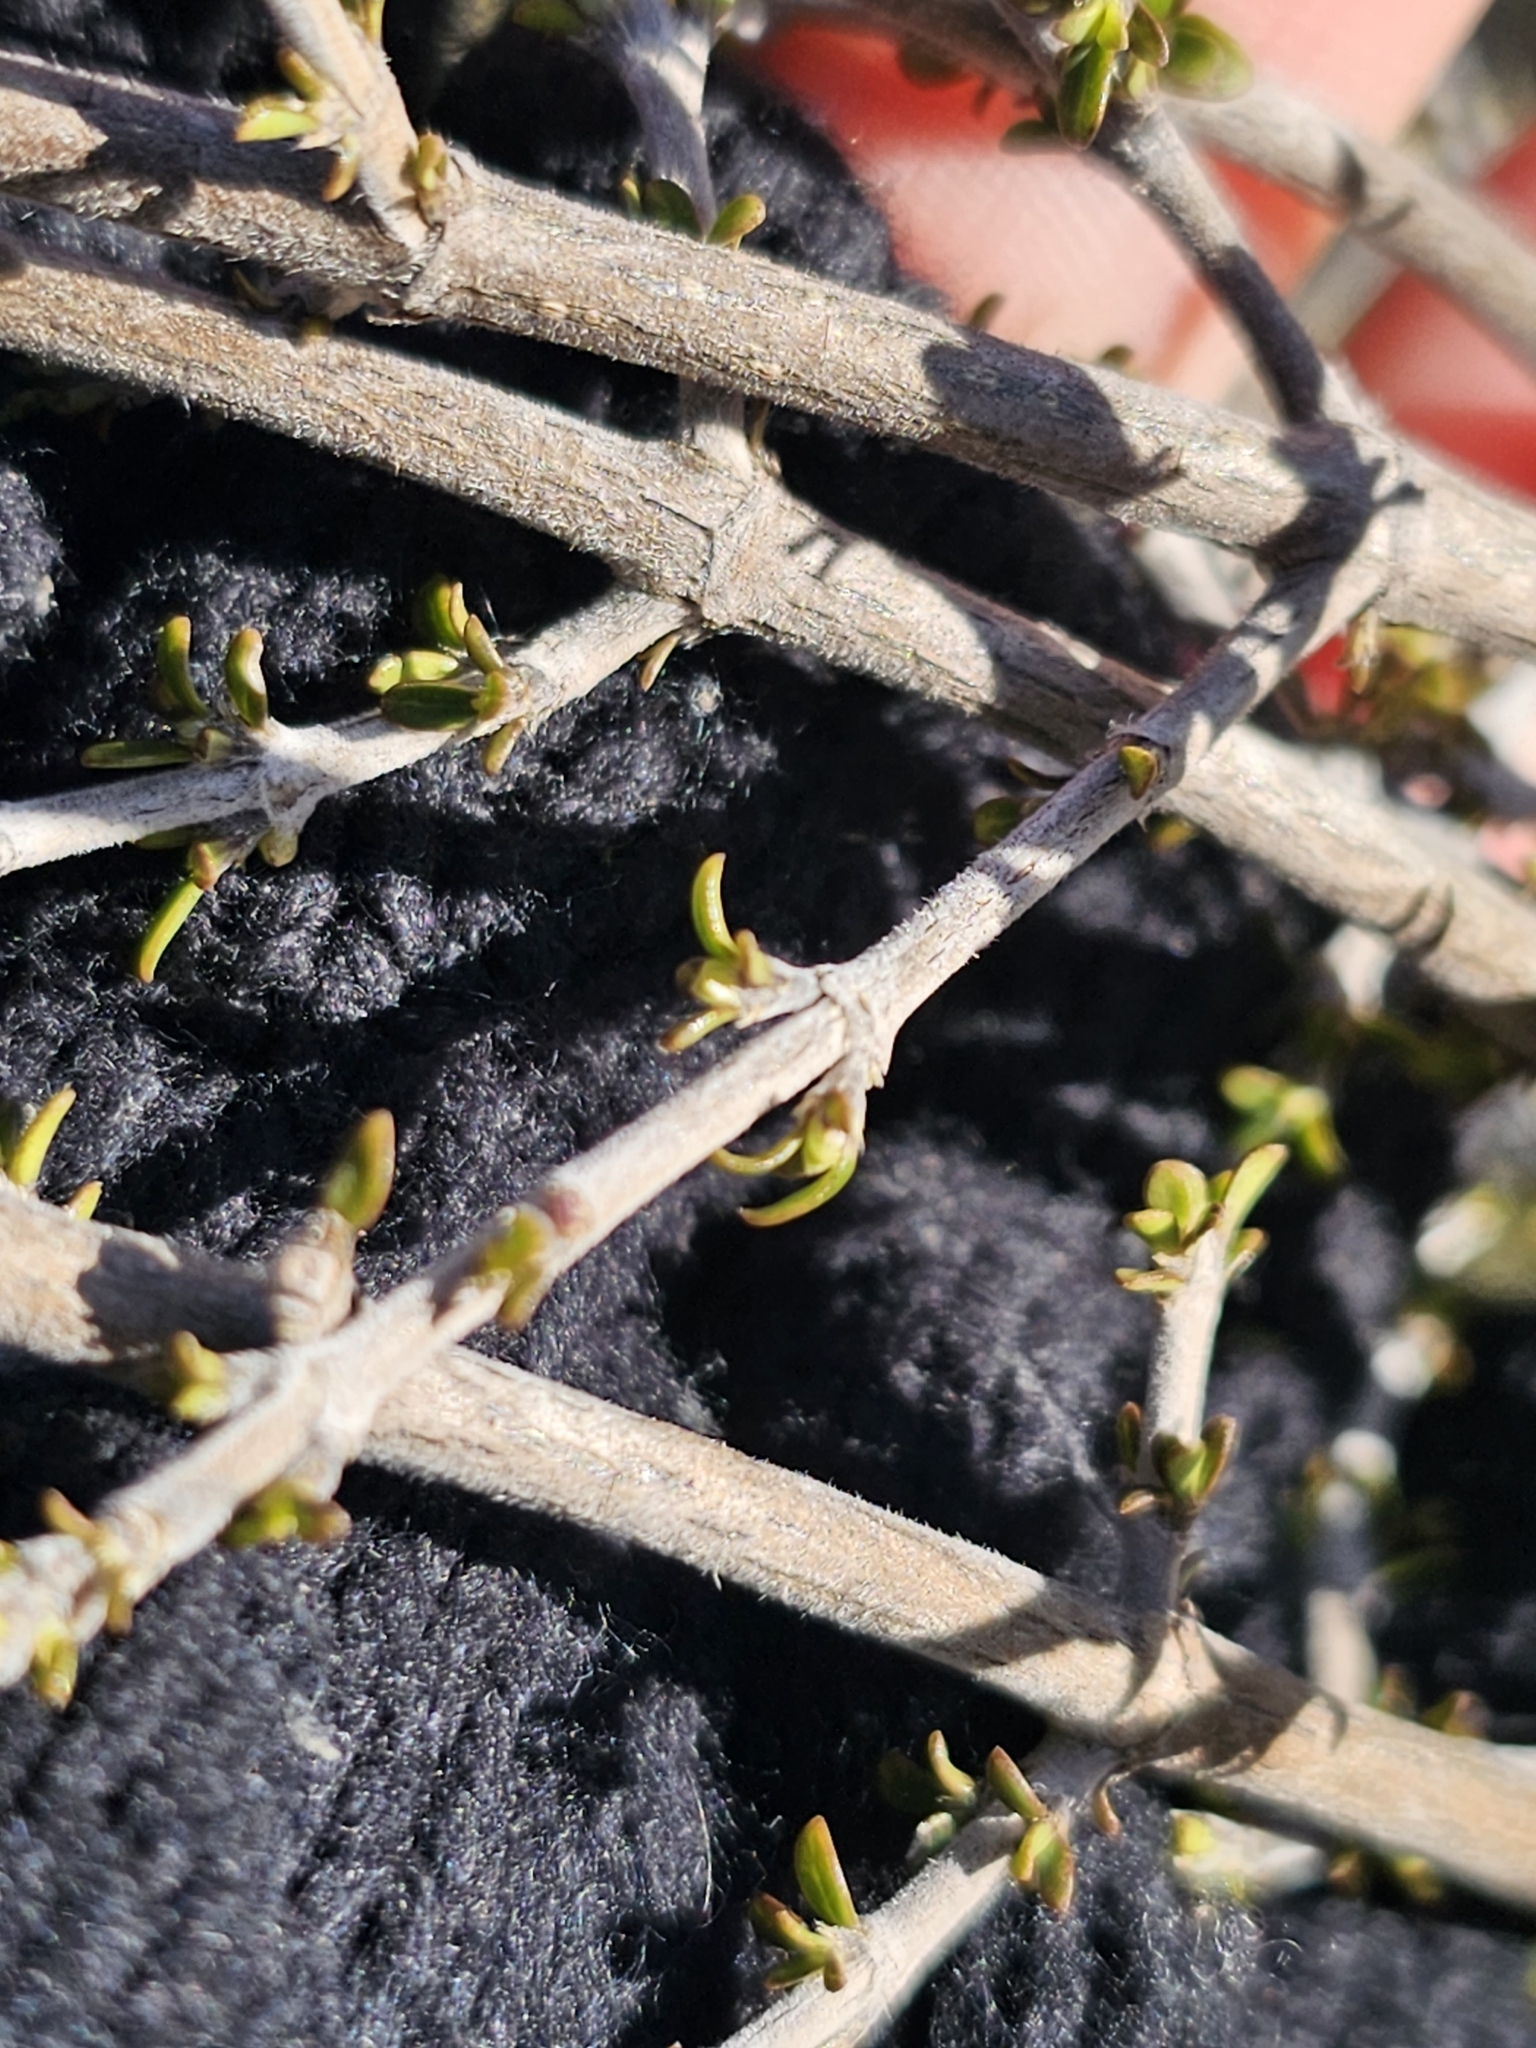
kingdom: Plantae
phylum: Tracheophyta
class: Magnoliopsida
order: Gentianales
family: Rubiaceae
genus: Coprosma
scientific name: Coprosma decurva
